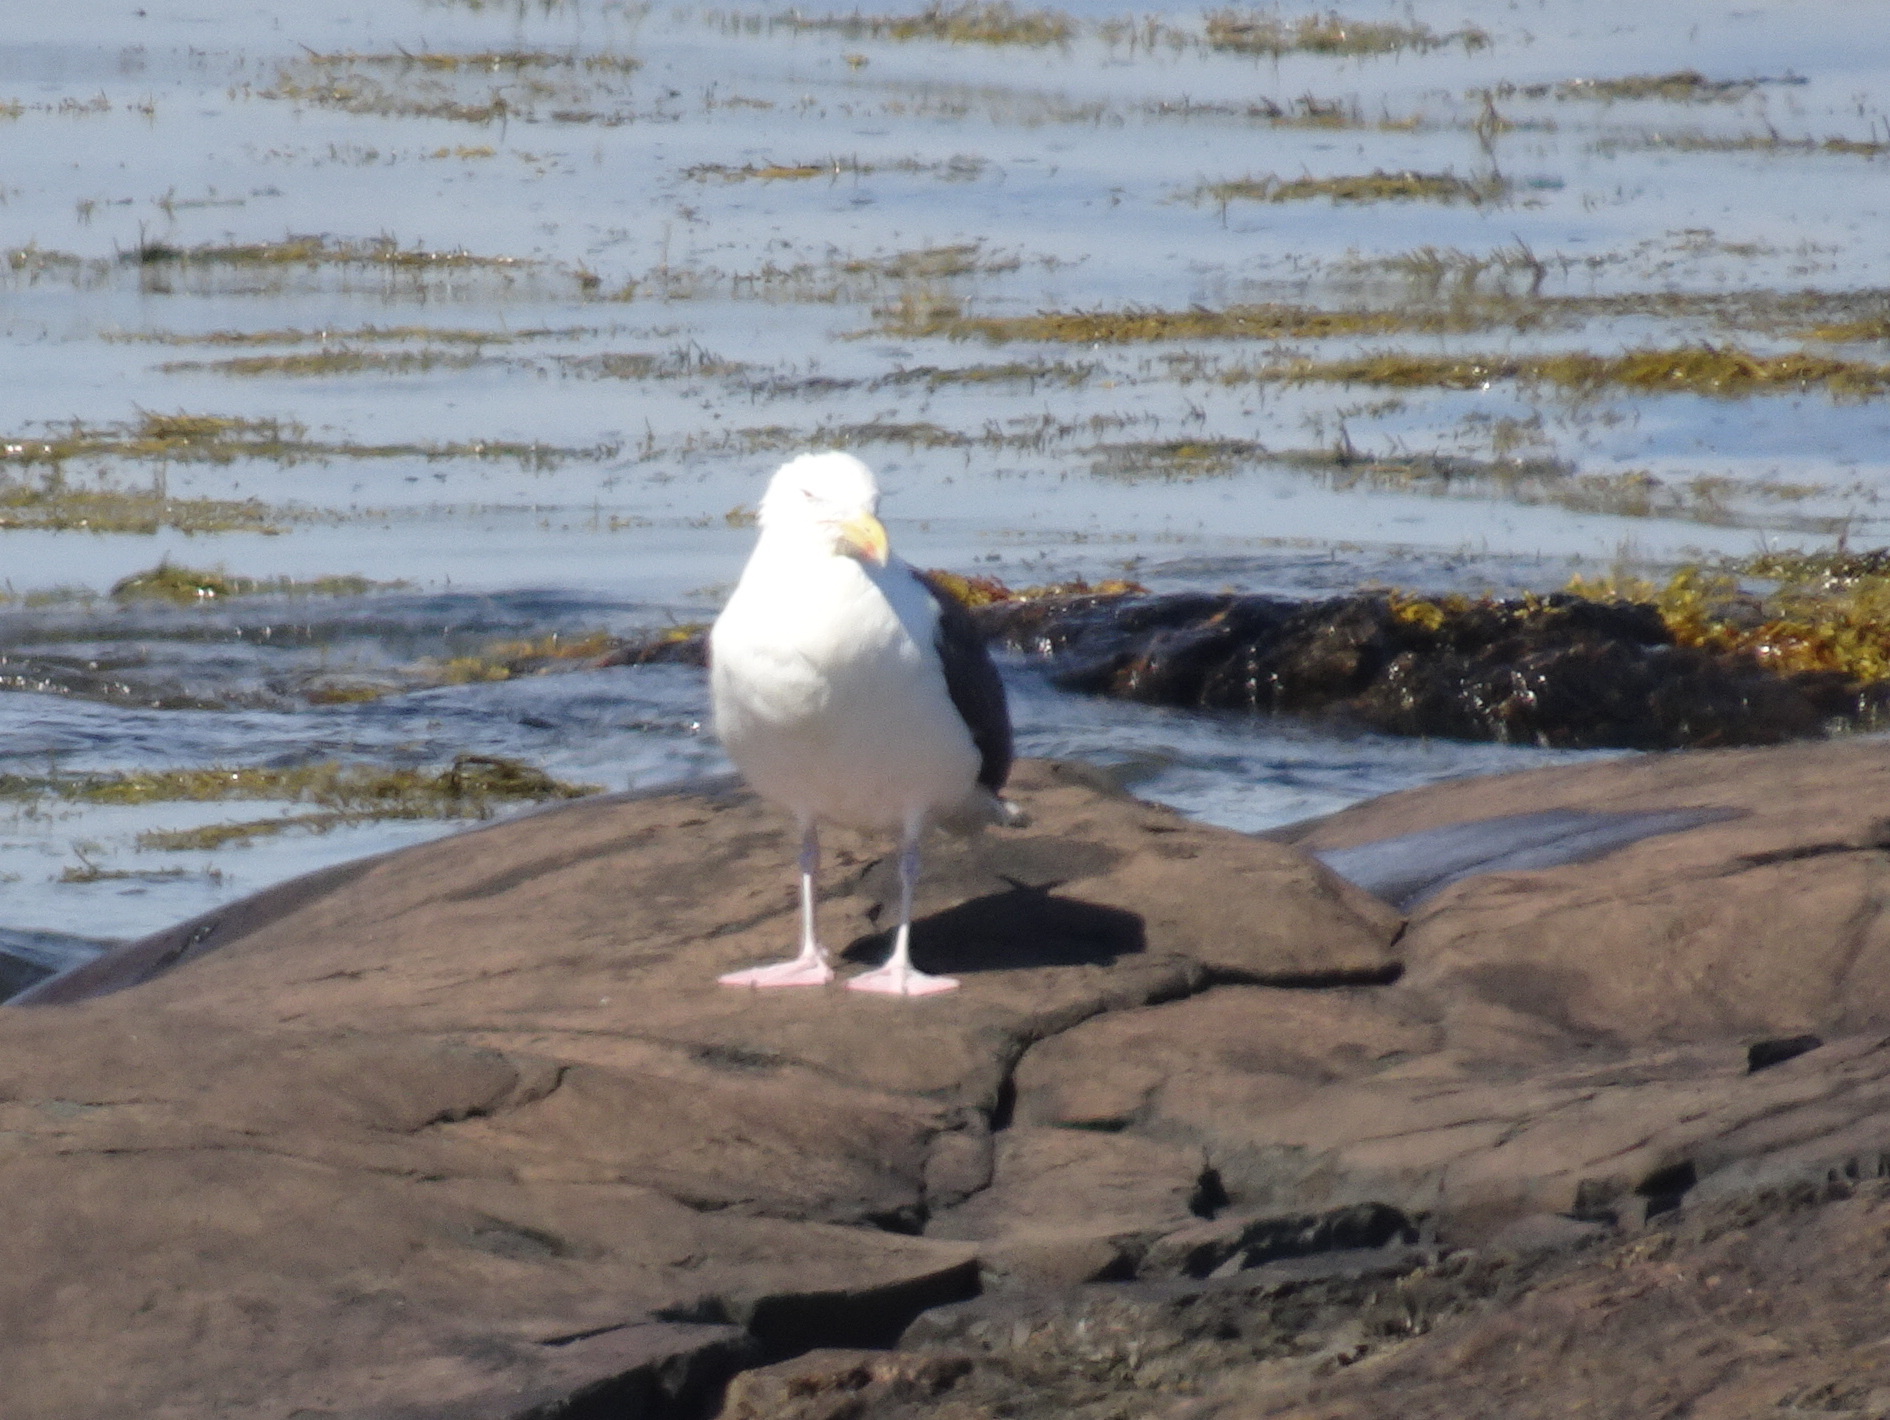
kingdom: Animalia
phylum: Chordata
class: Aves
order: Charadriiformes
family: Laridae
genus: Larus
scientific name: Larus marinus
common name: Great black-backed gull
